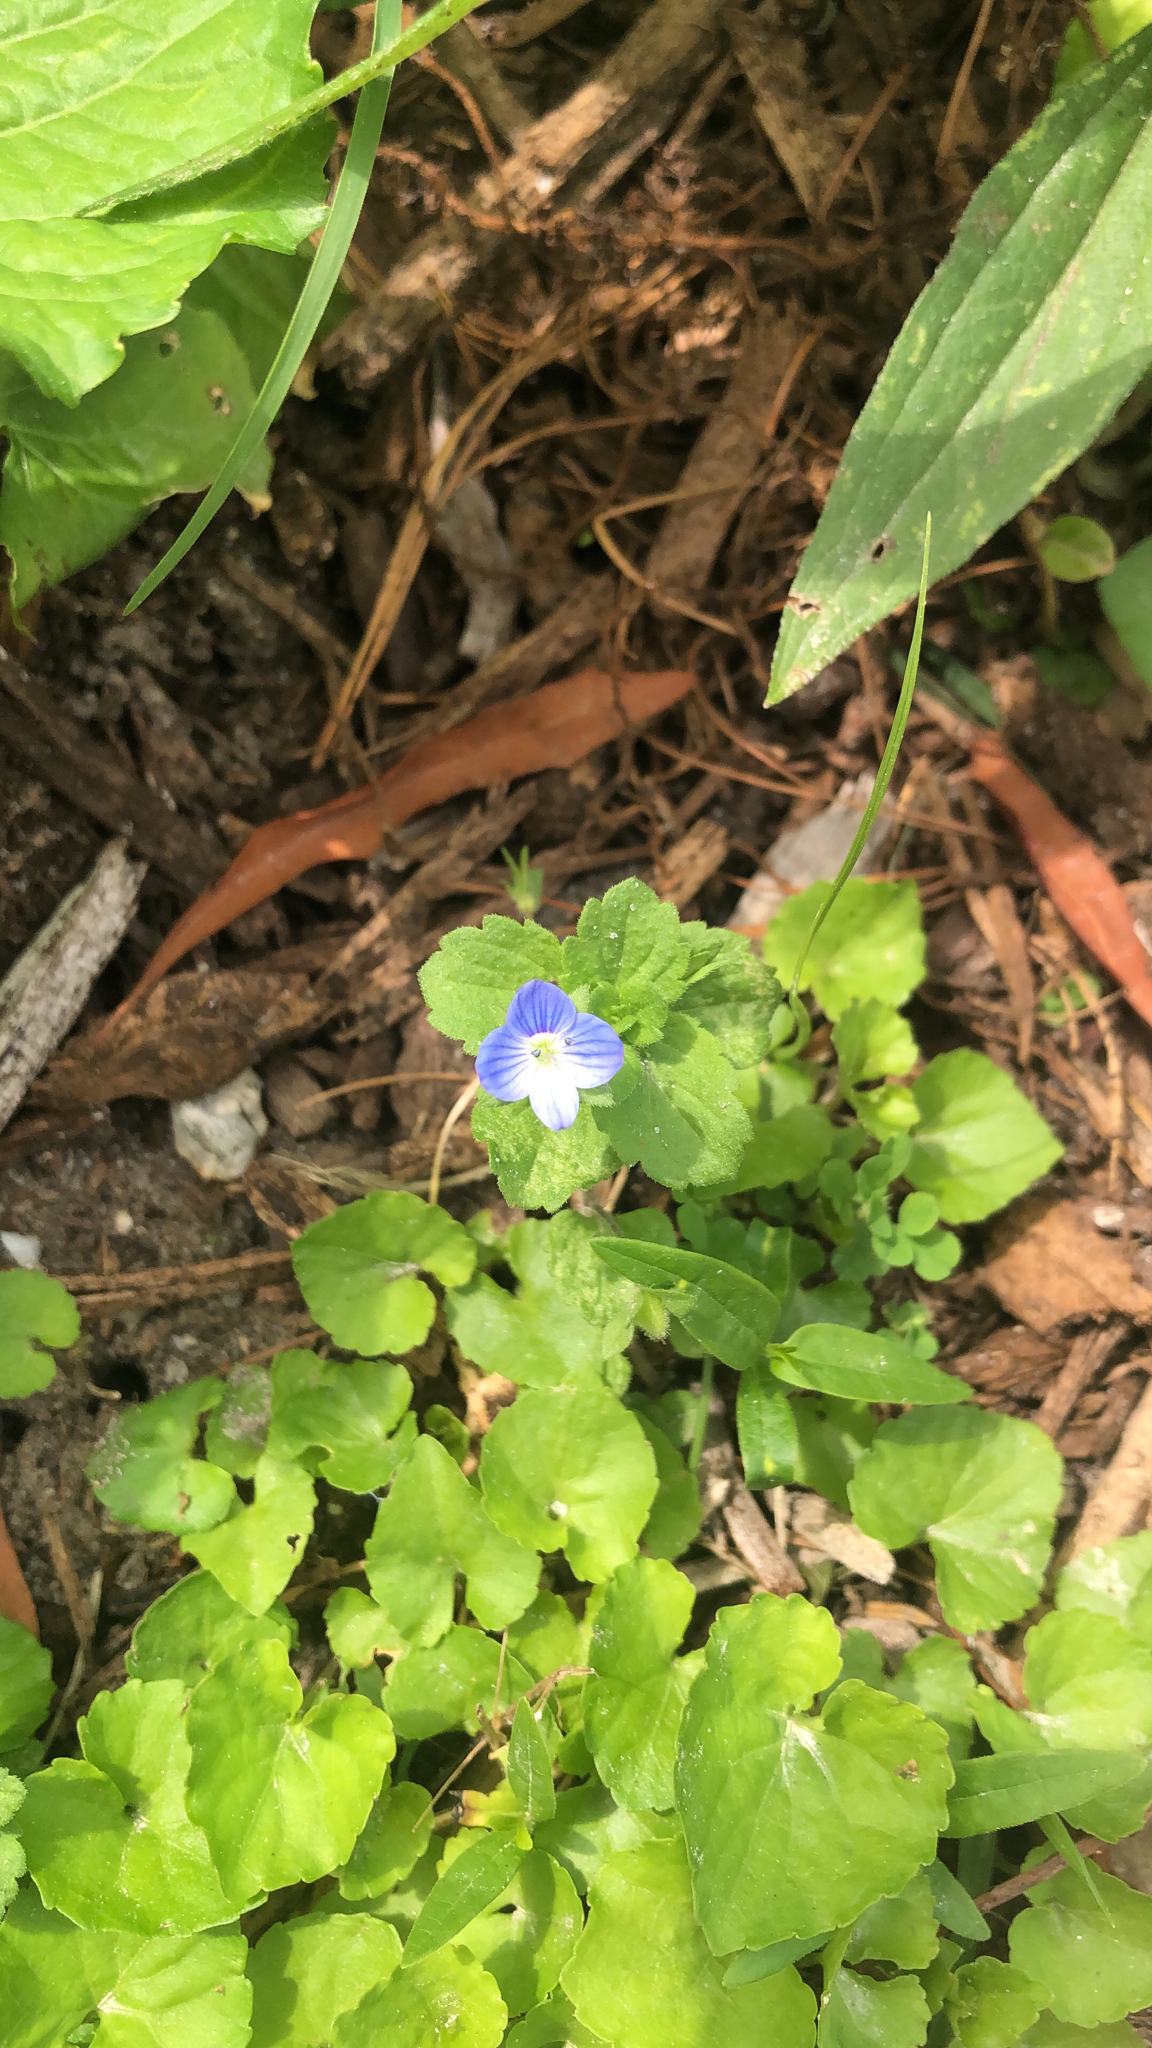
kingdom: Plantae
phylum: Tracheophyta
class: Magnoliopsida
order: Lamiales
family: Plantaginaceae
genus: Veronica
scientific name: Veronica persica
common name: Common field-speedwell
